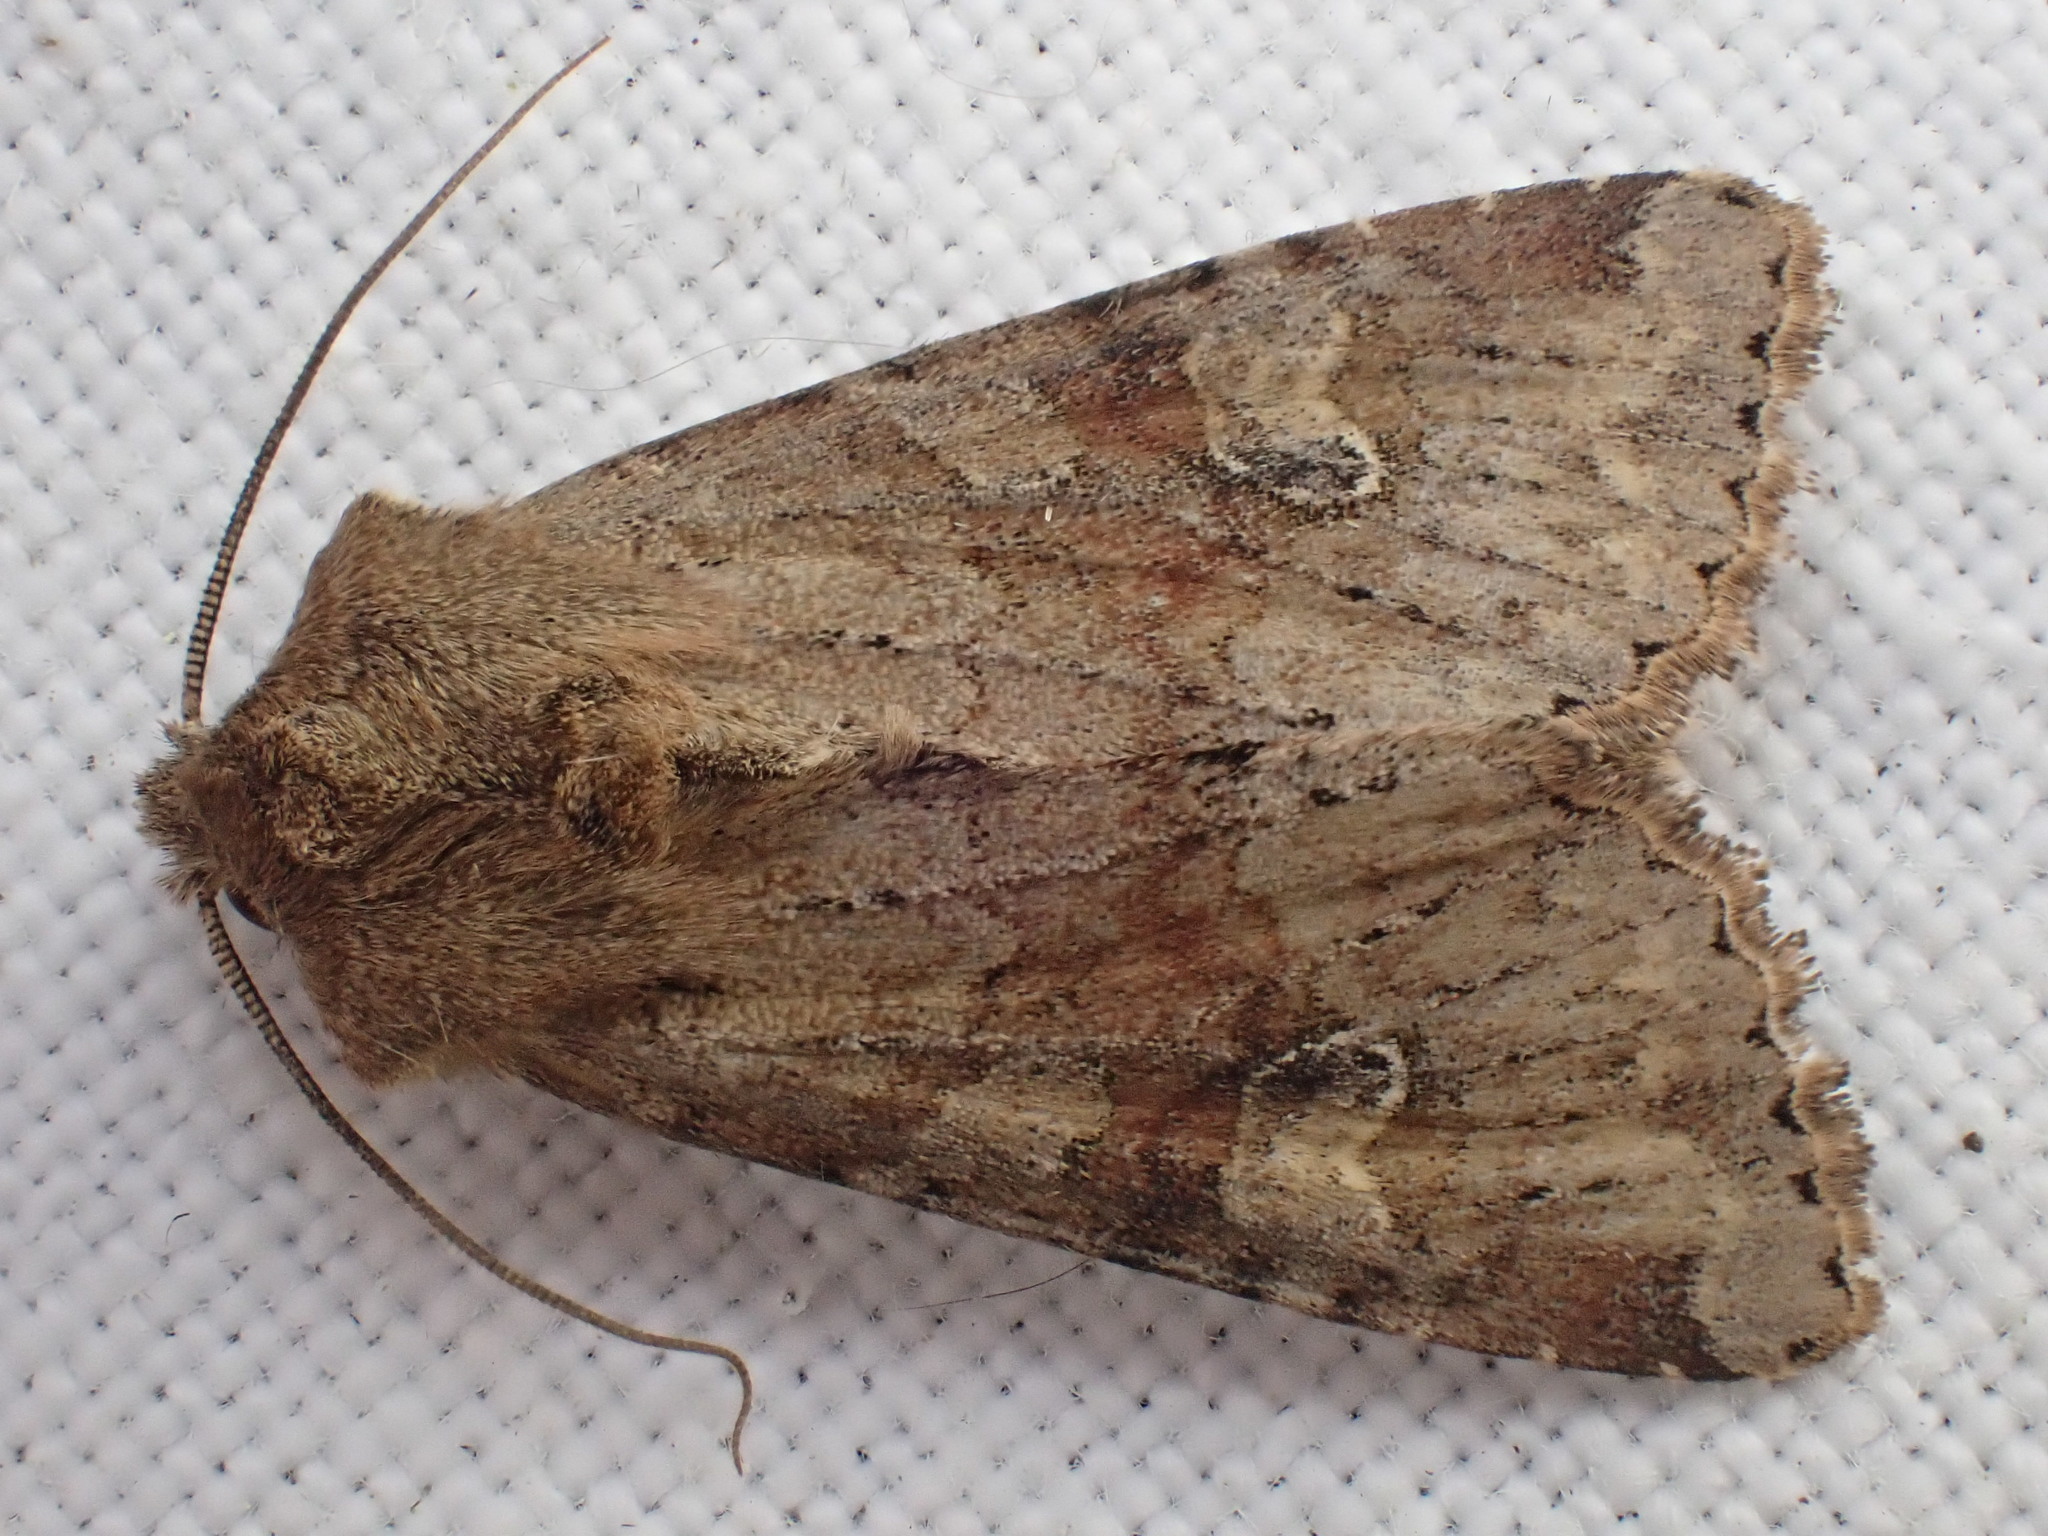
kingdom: Animalia
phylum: Arthropoda
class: Insecta
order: Lepidoptera
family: Noctuidae
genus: Apamea
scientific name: Apamea sordens
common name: Rustic shoulder-knot
